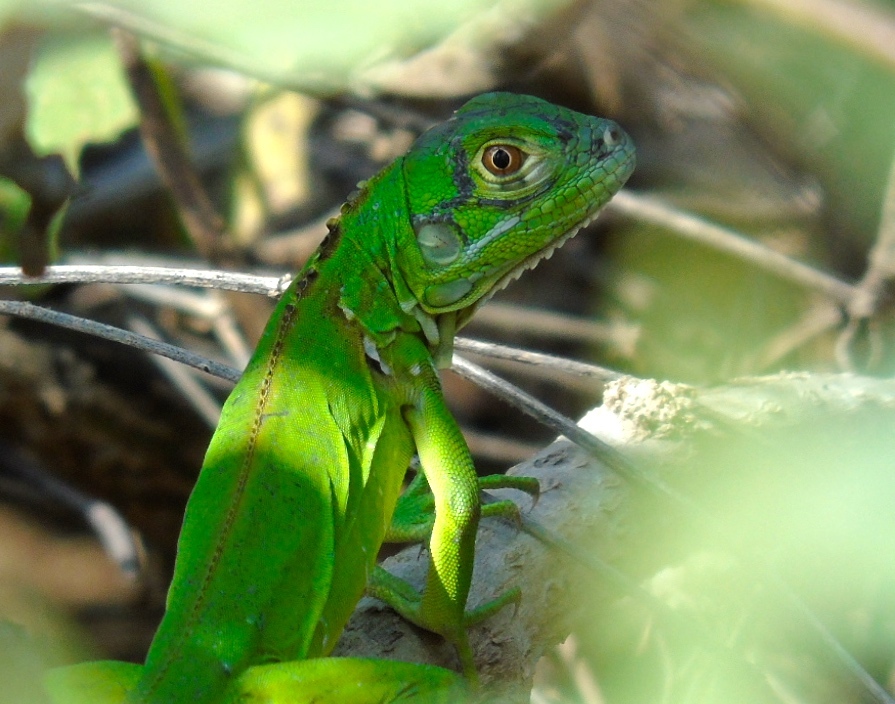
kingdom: Animalia
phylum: Chordata
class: Squamata
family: Iguanidae
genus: Iguana
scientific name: Iguana iguana
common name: Green iguana
